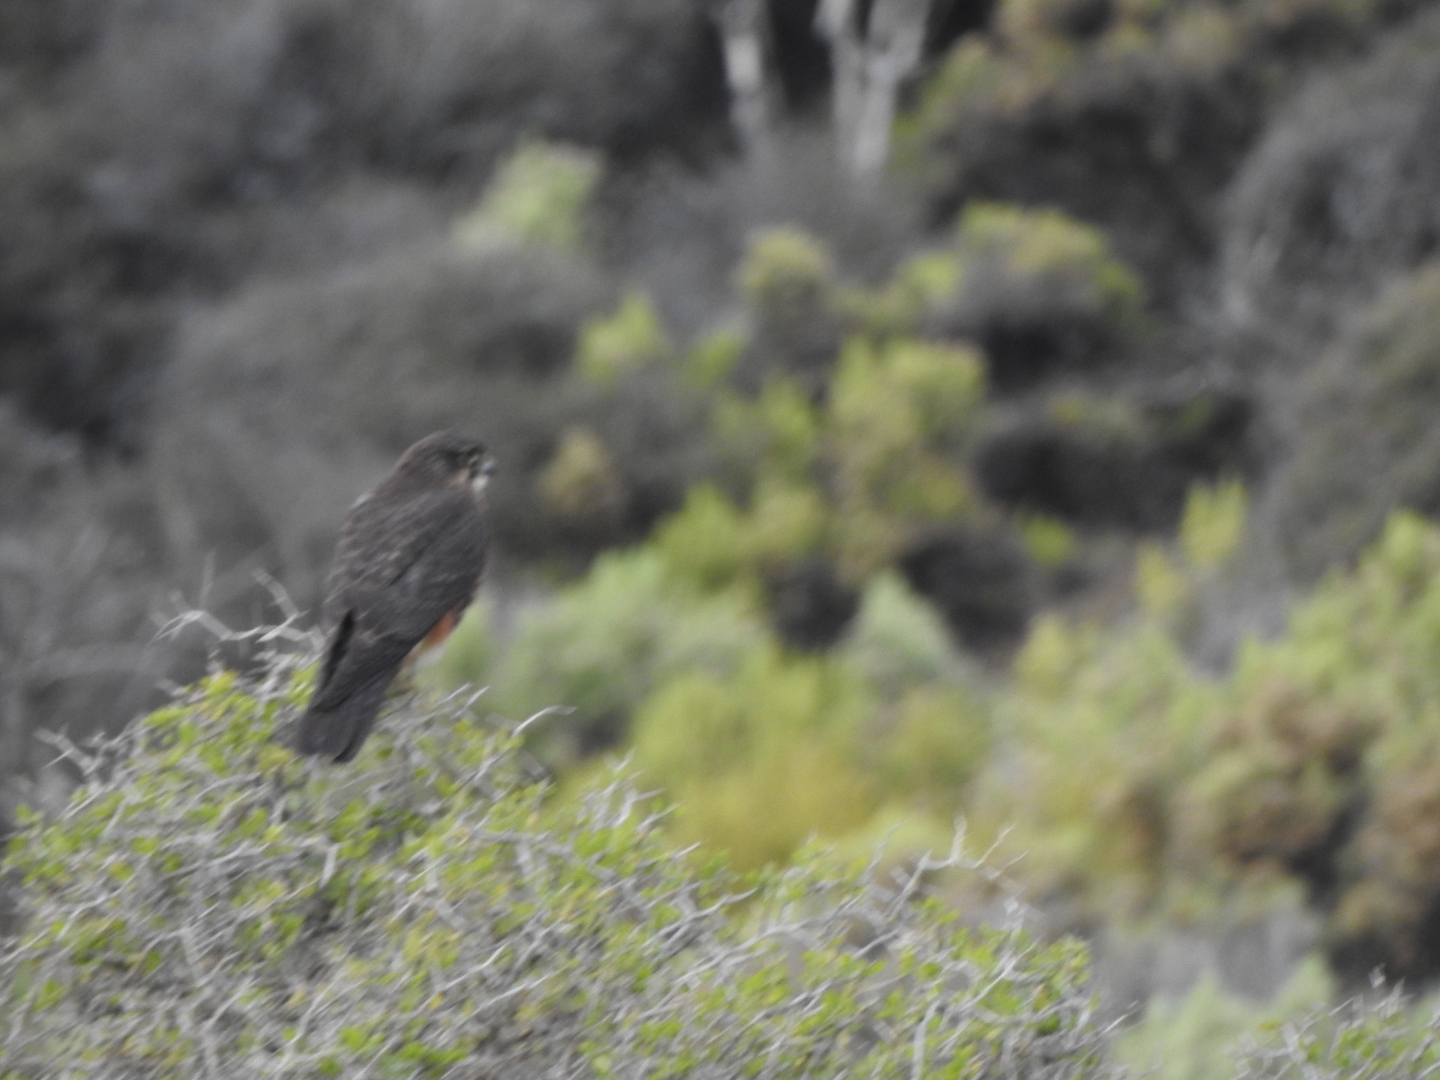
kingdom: Animalia
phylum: Chordata
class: Aves
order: Falconiformes
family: Falconidae
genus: Falco
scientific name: Falco novaeseelandiae
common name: New zealand falcon
